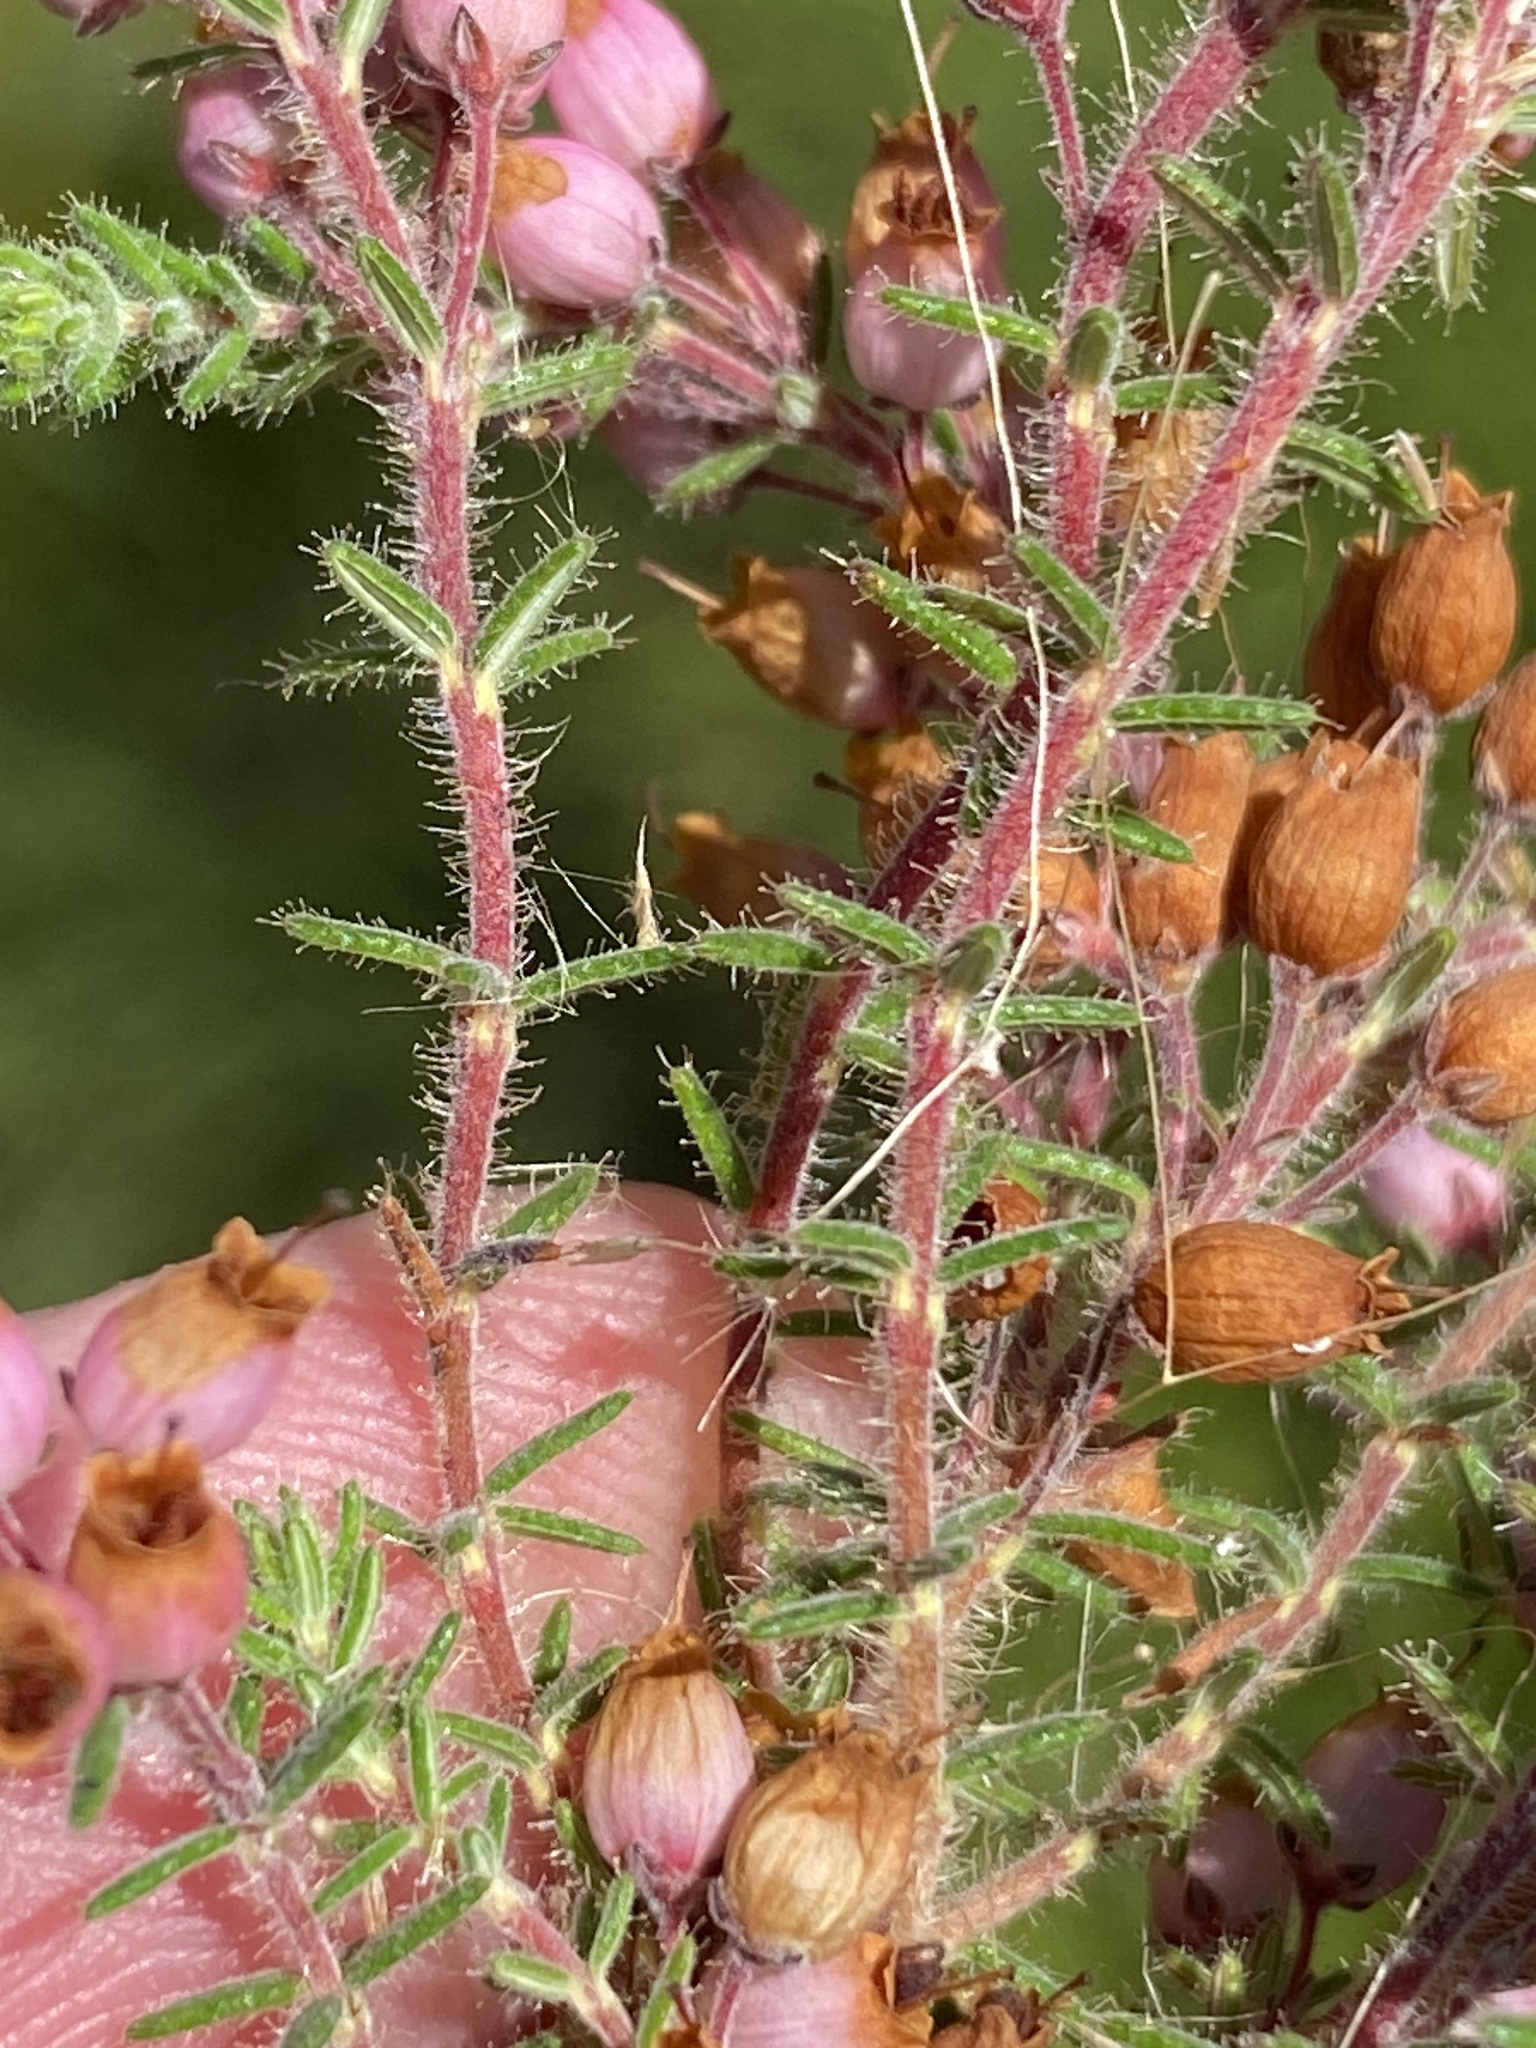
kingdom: Plantae
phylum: Tracheophyta
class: Magnoliopsida
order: Ericales
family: Ericaceae
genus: Erica
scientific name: Erica racemosa
